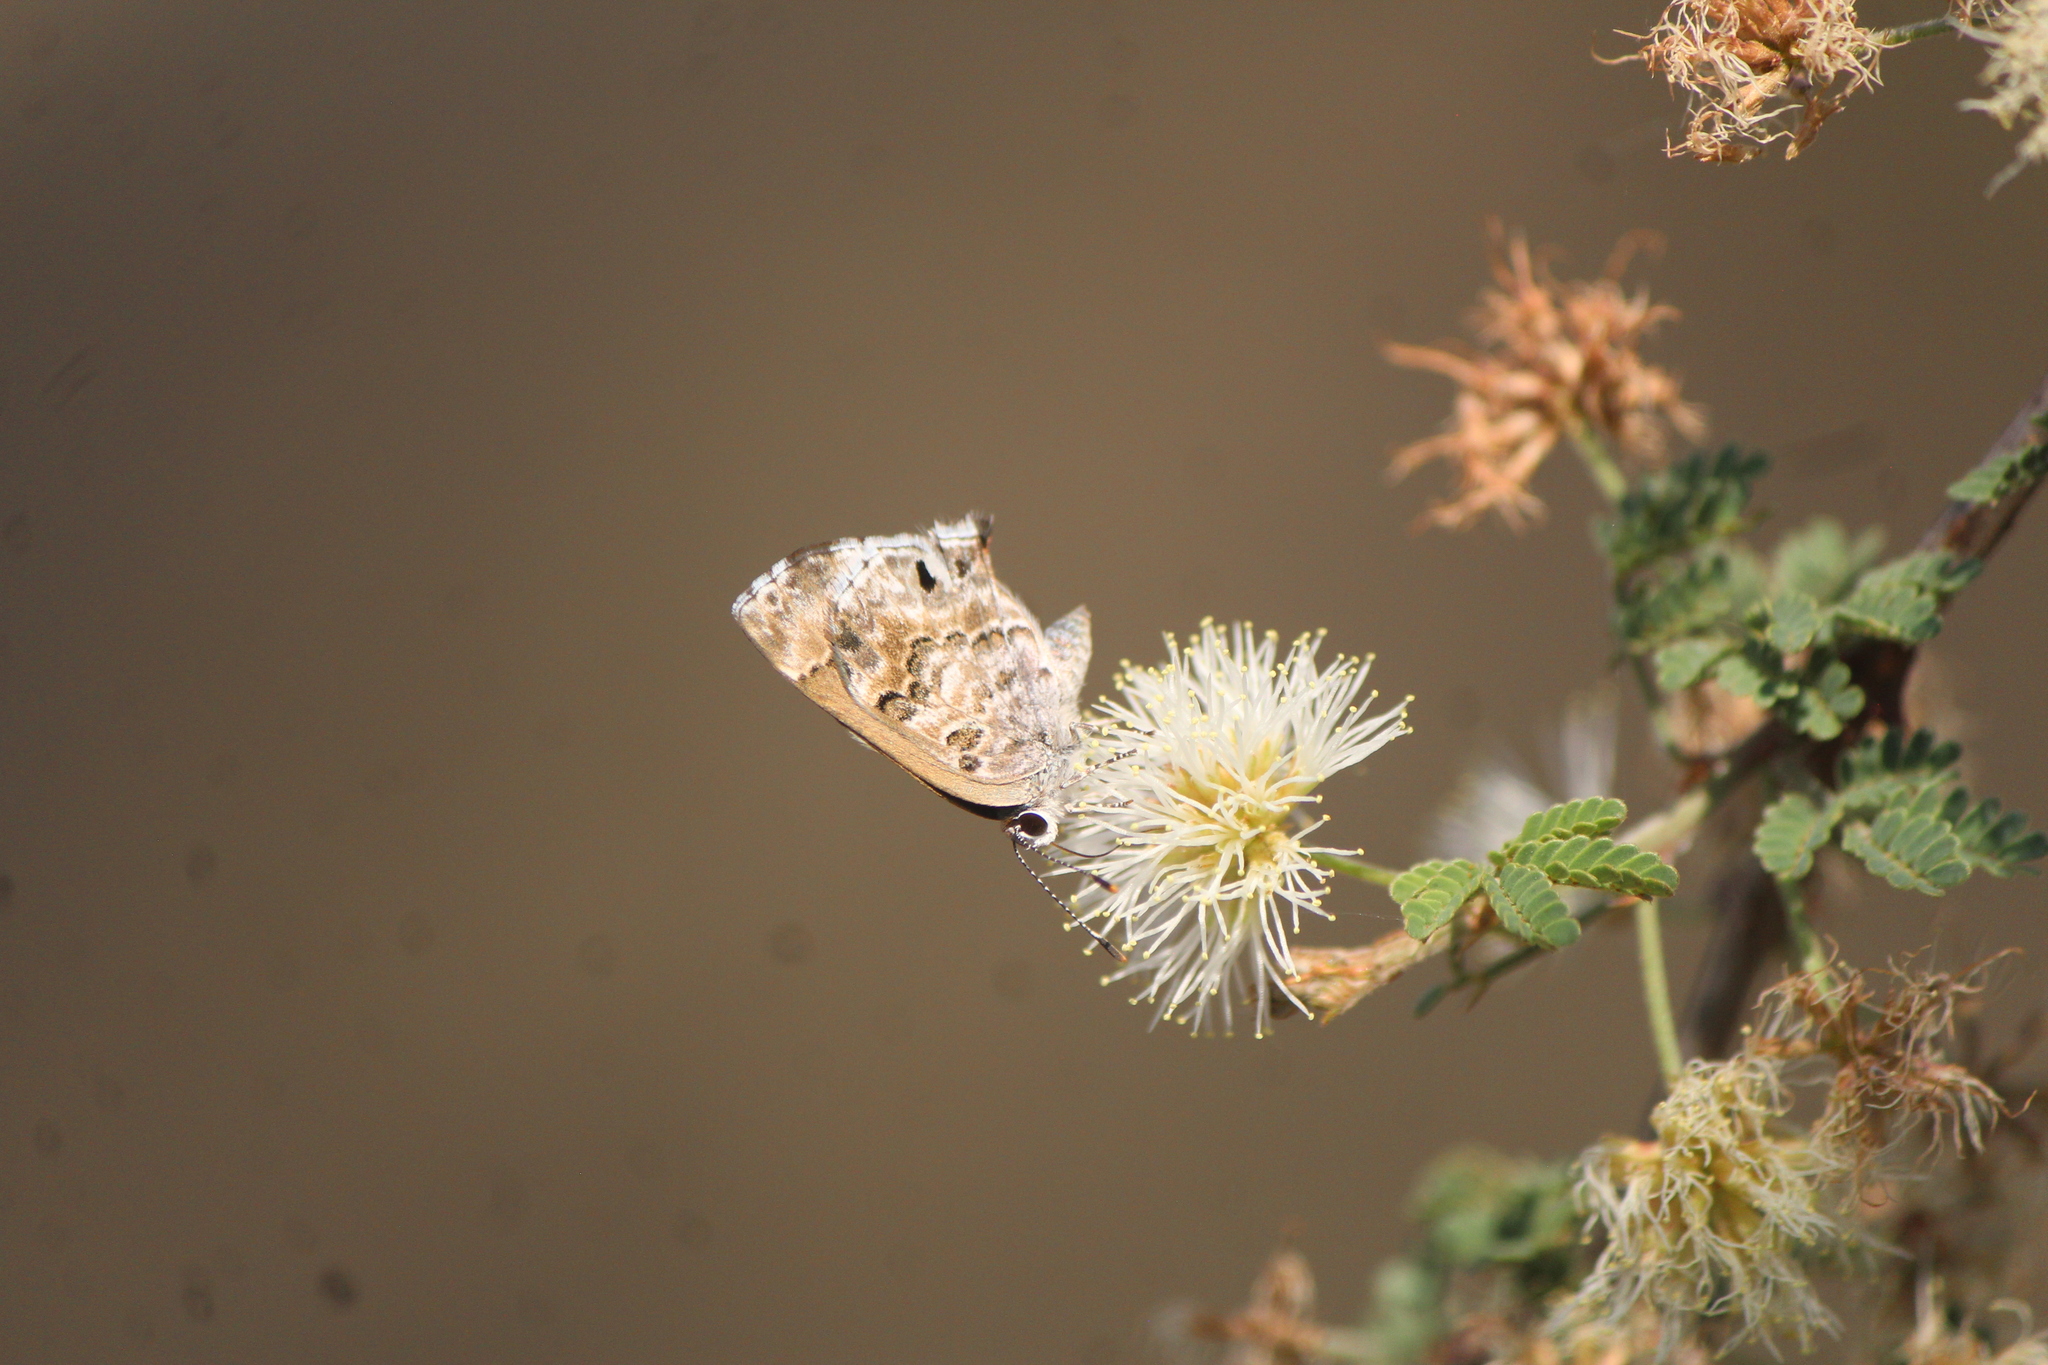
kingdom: Animalia
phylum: Arthropoda
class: Insecta
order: Lepidoptera
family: Lycaenidae
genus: Thecla
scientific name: Thecla cestri
